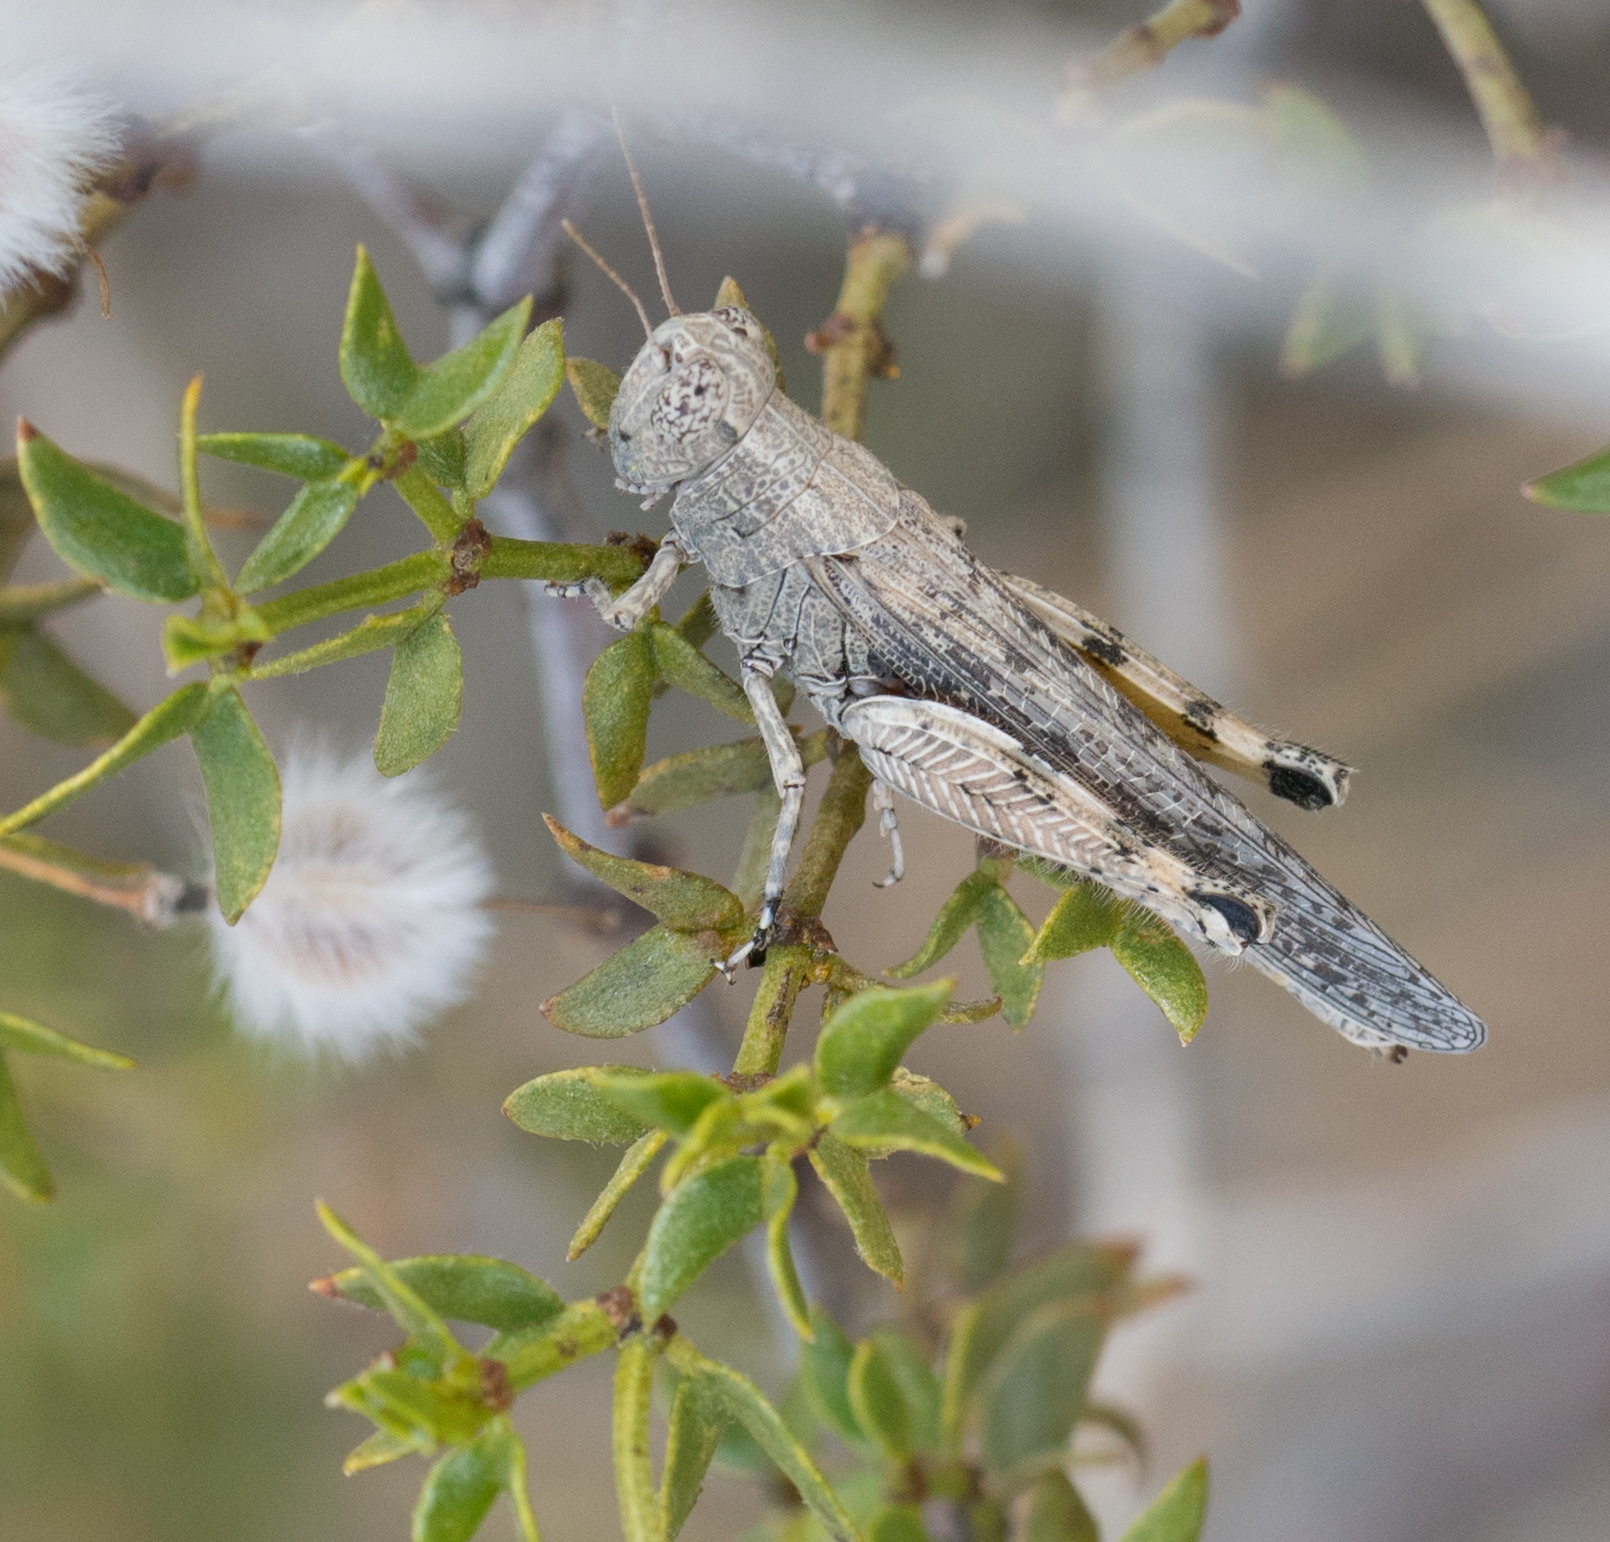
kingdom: Animalia
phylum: Arthropoda
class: Insecta
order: Orthoptera
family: Acrididae
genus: Ligurotettix
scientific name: Ligurotettix coquilletti
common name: Desert clicker grasshopper
